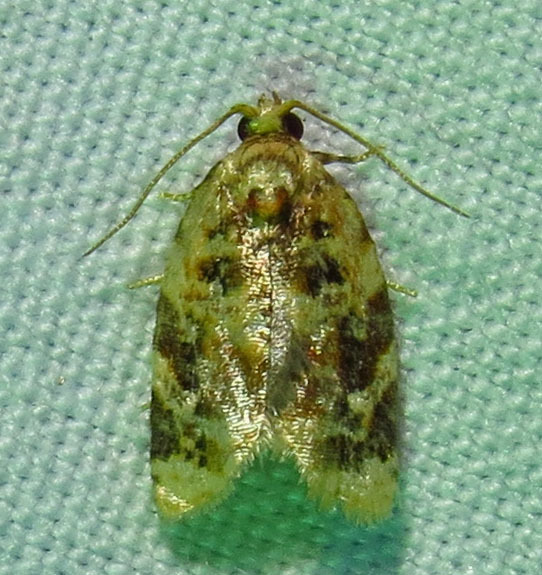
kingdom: Animalia
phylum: Arthropoda
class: Insecta
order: Lepidoptera
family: Tortricidae
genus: Argyrotaenia
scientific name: Argyrotaenia velutinana
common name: Red-banded leafroller moth
